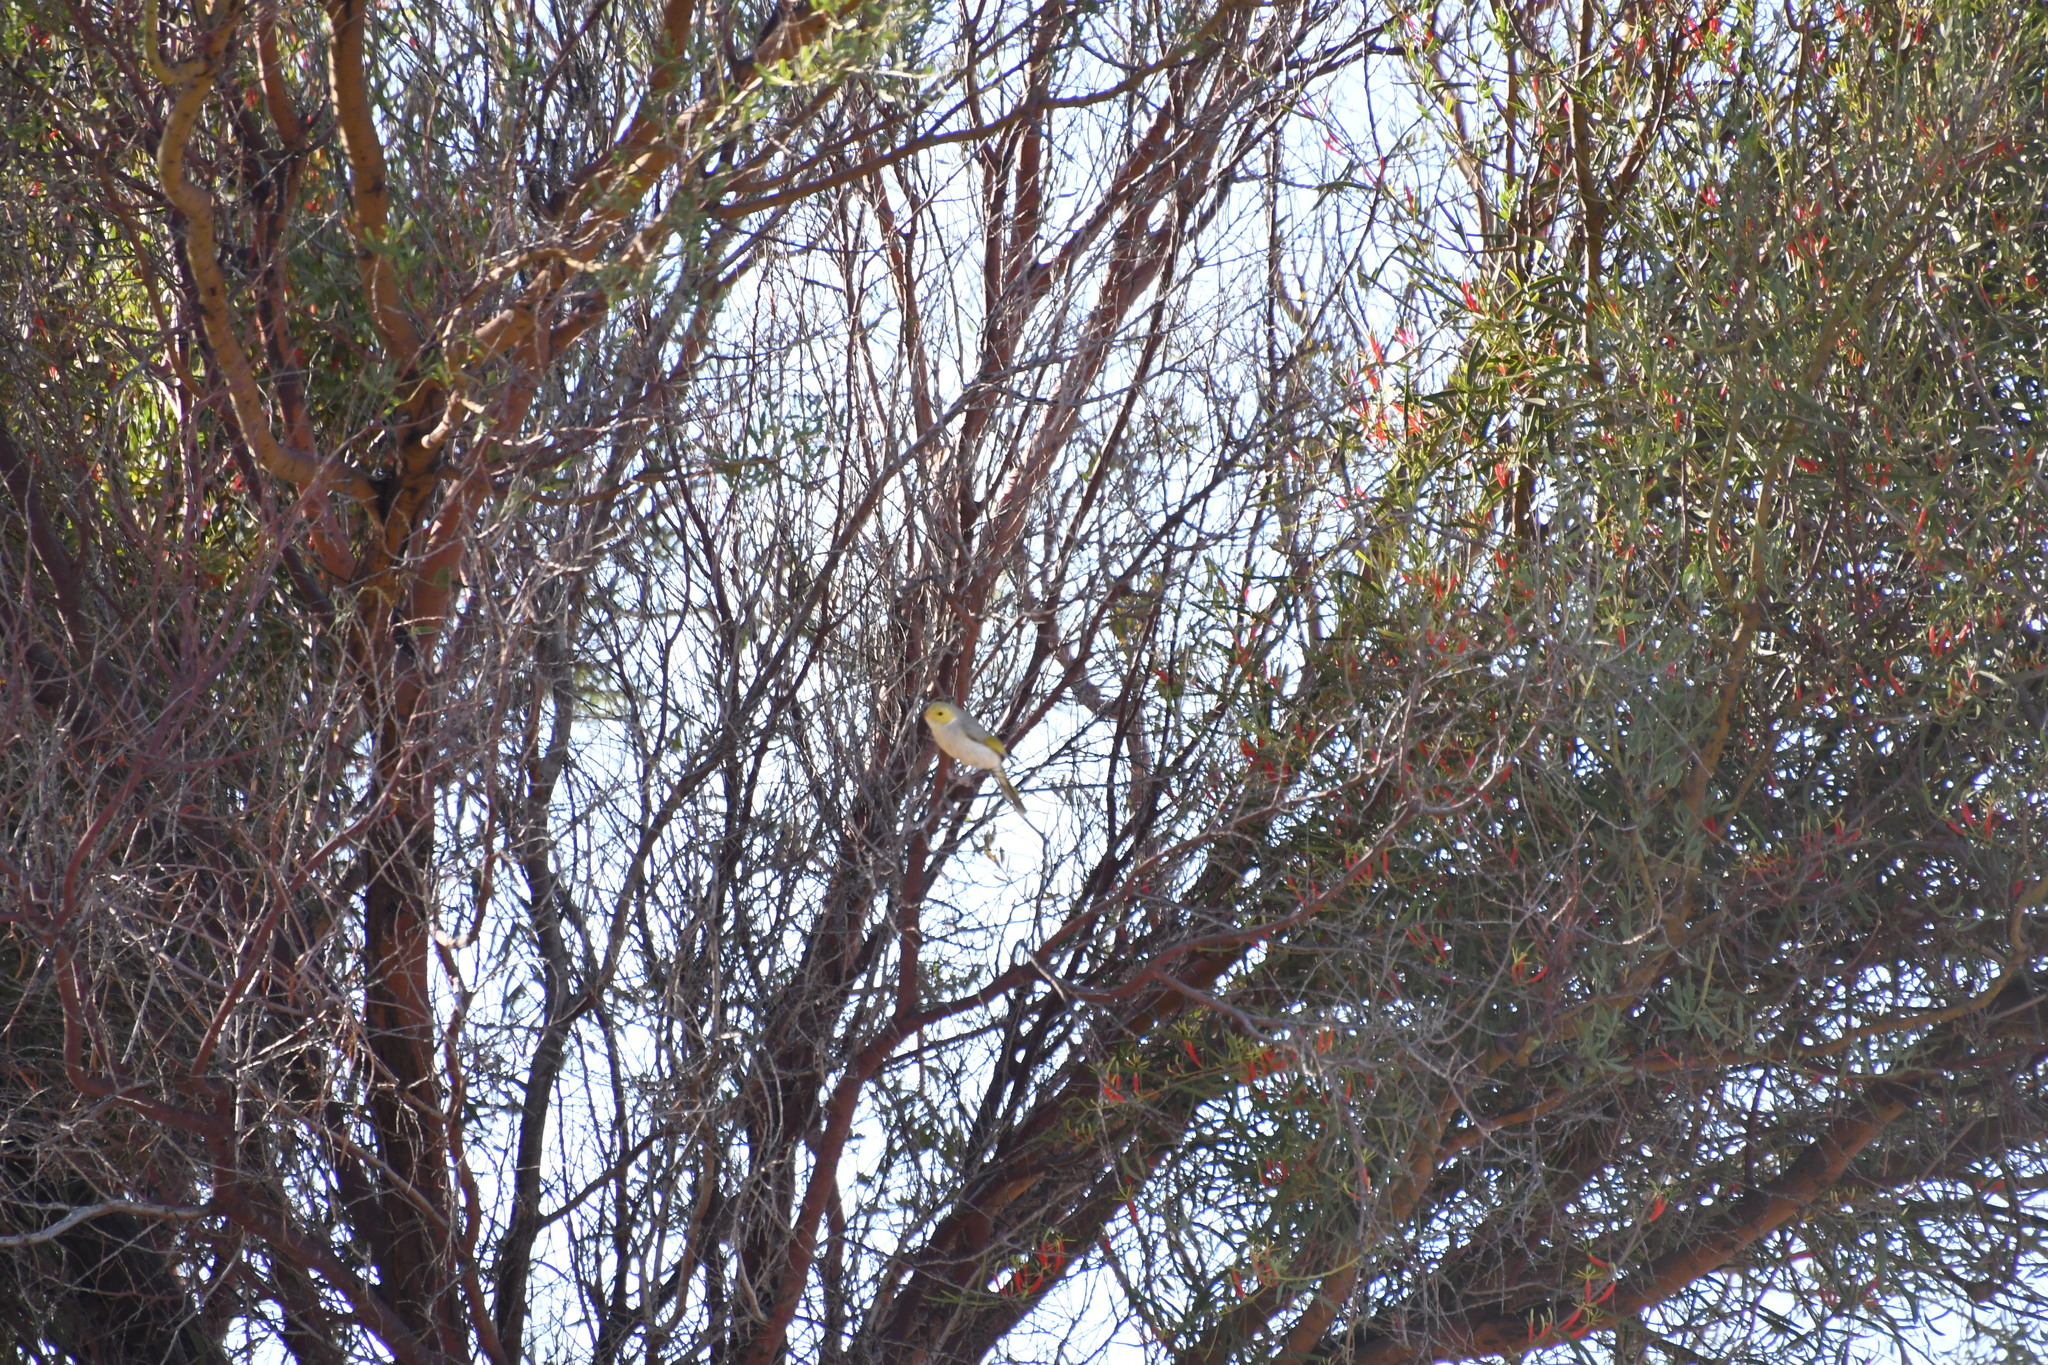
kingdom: Animalia
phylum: Chordata
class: Aves
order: Passeriformes
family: Meliphagidae
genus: Ptilotula
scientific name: Ptilotula penicillata
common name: White-plumed honeyeater
